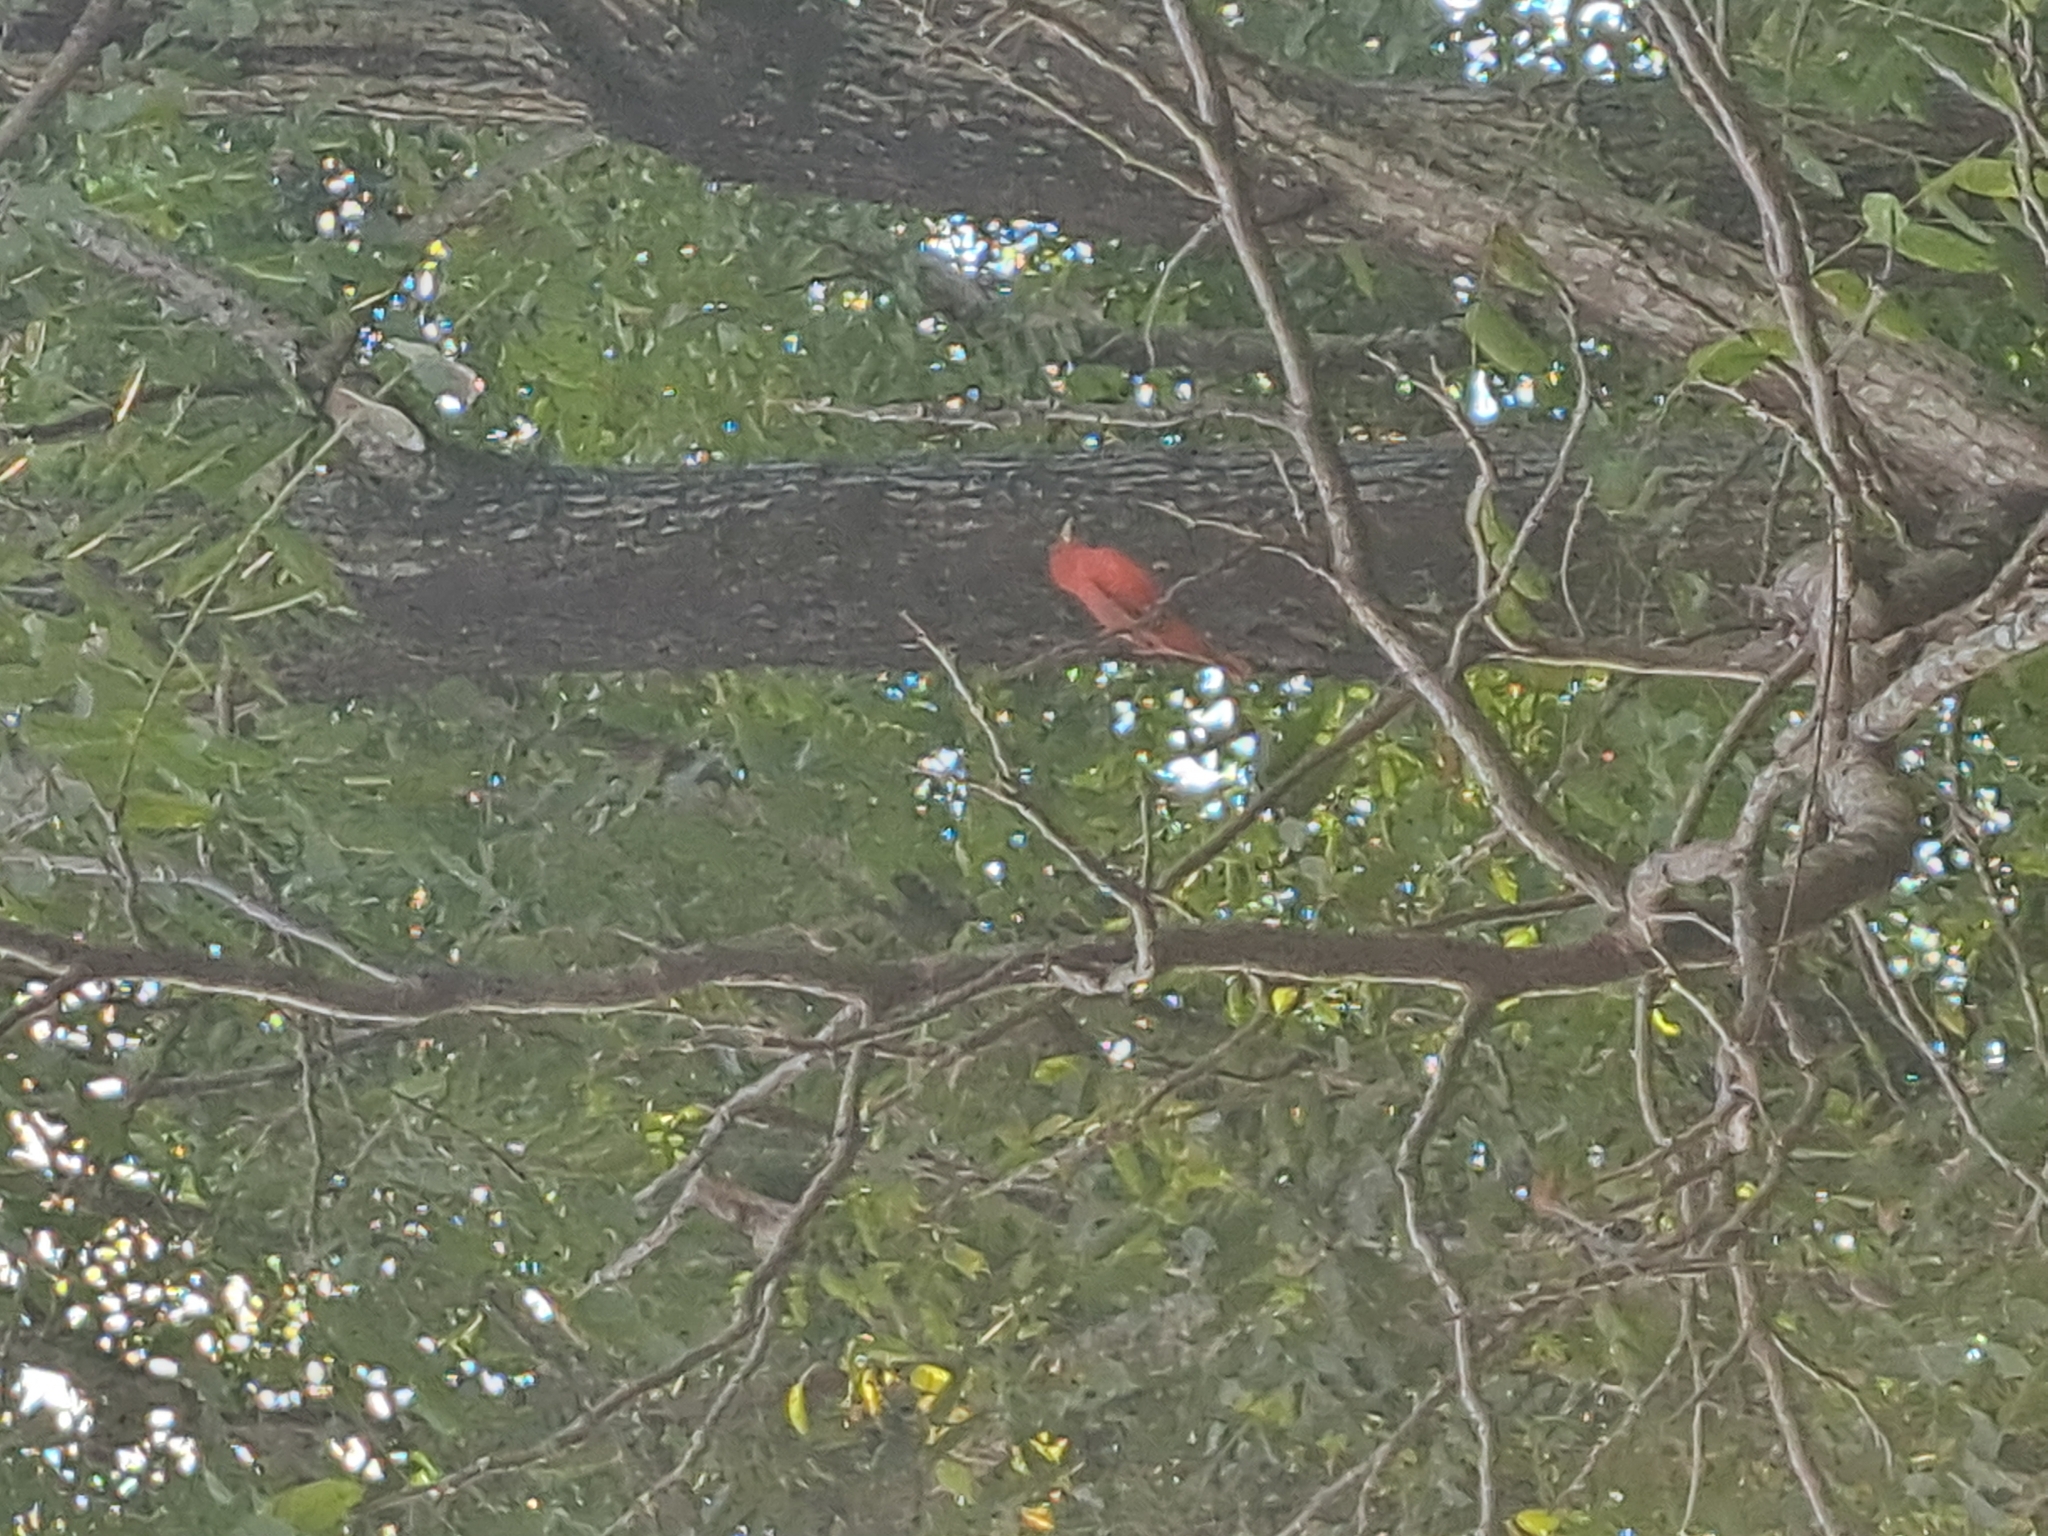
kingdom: Animalia
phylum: Chordata
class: Aves
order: Passeriformes
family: Cardinalidae
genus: Piranga
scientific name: Piranga rubra
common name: Summer tanager
